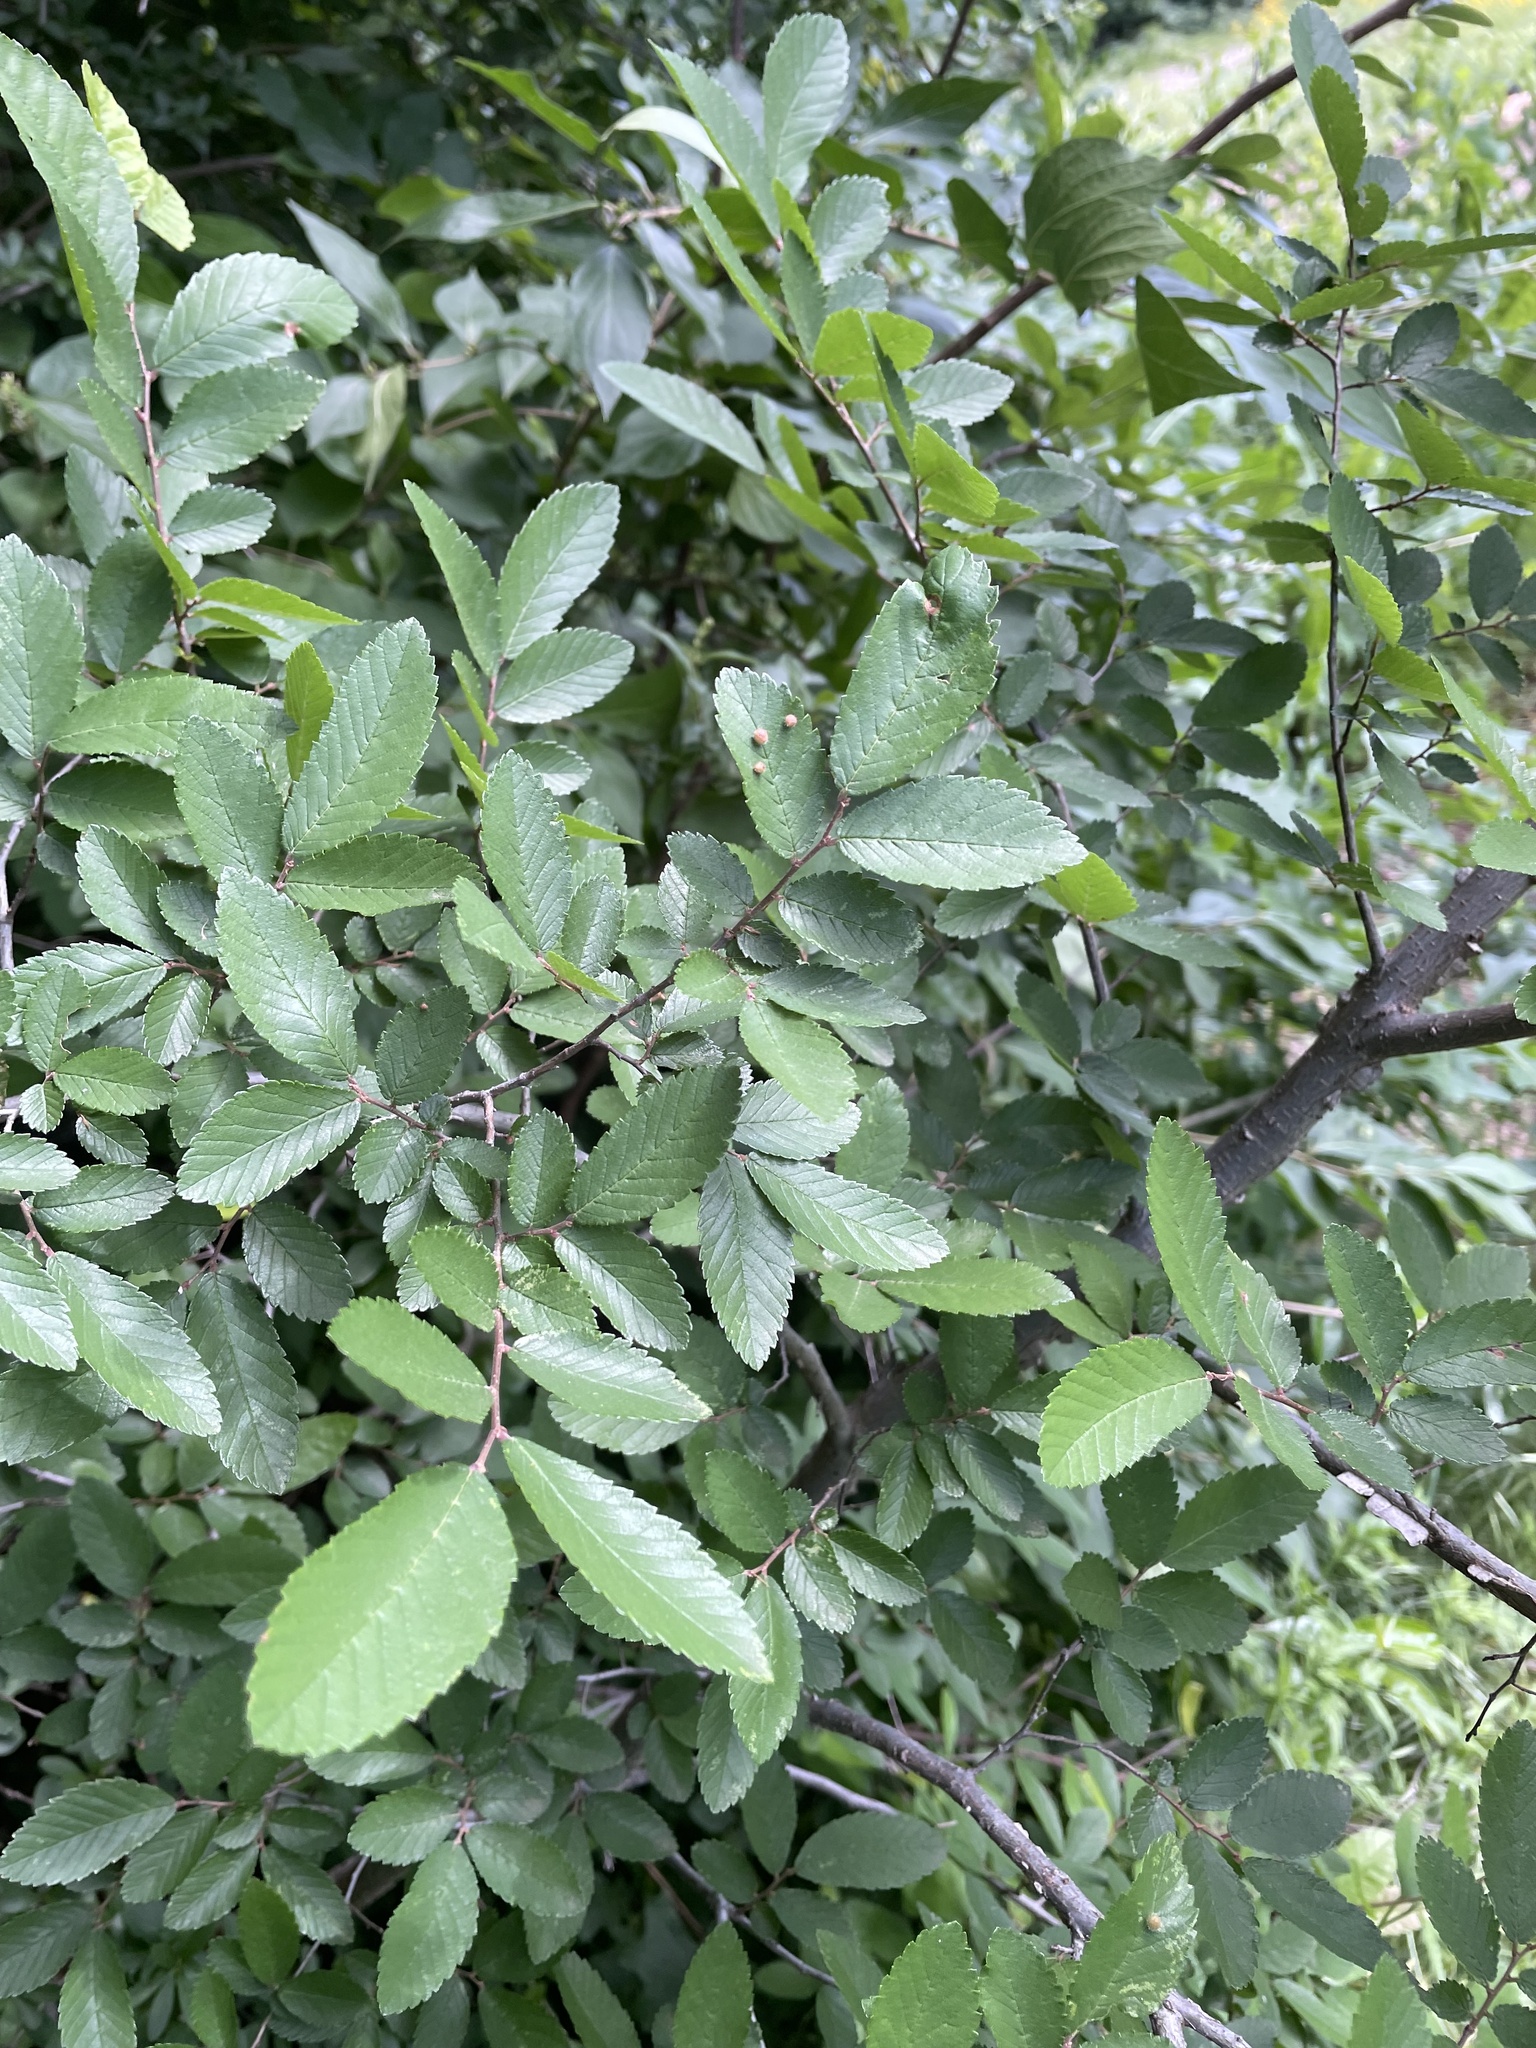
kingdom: Plantae
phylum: Tracheophyta
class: Magnoliopsida
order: Rosales
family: Ulmaceae
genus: Ulmus
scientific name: Ulmus crassifolia
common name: Basket elm
